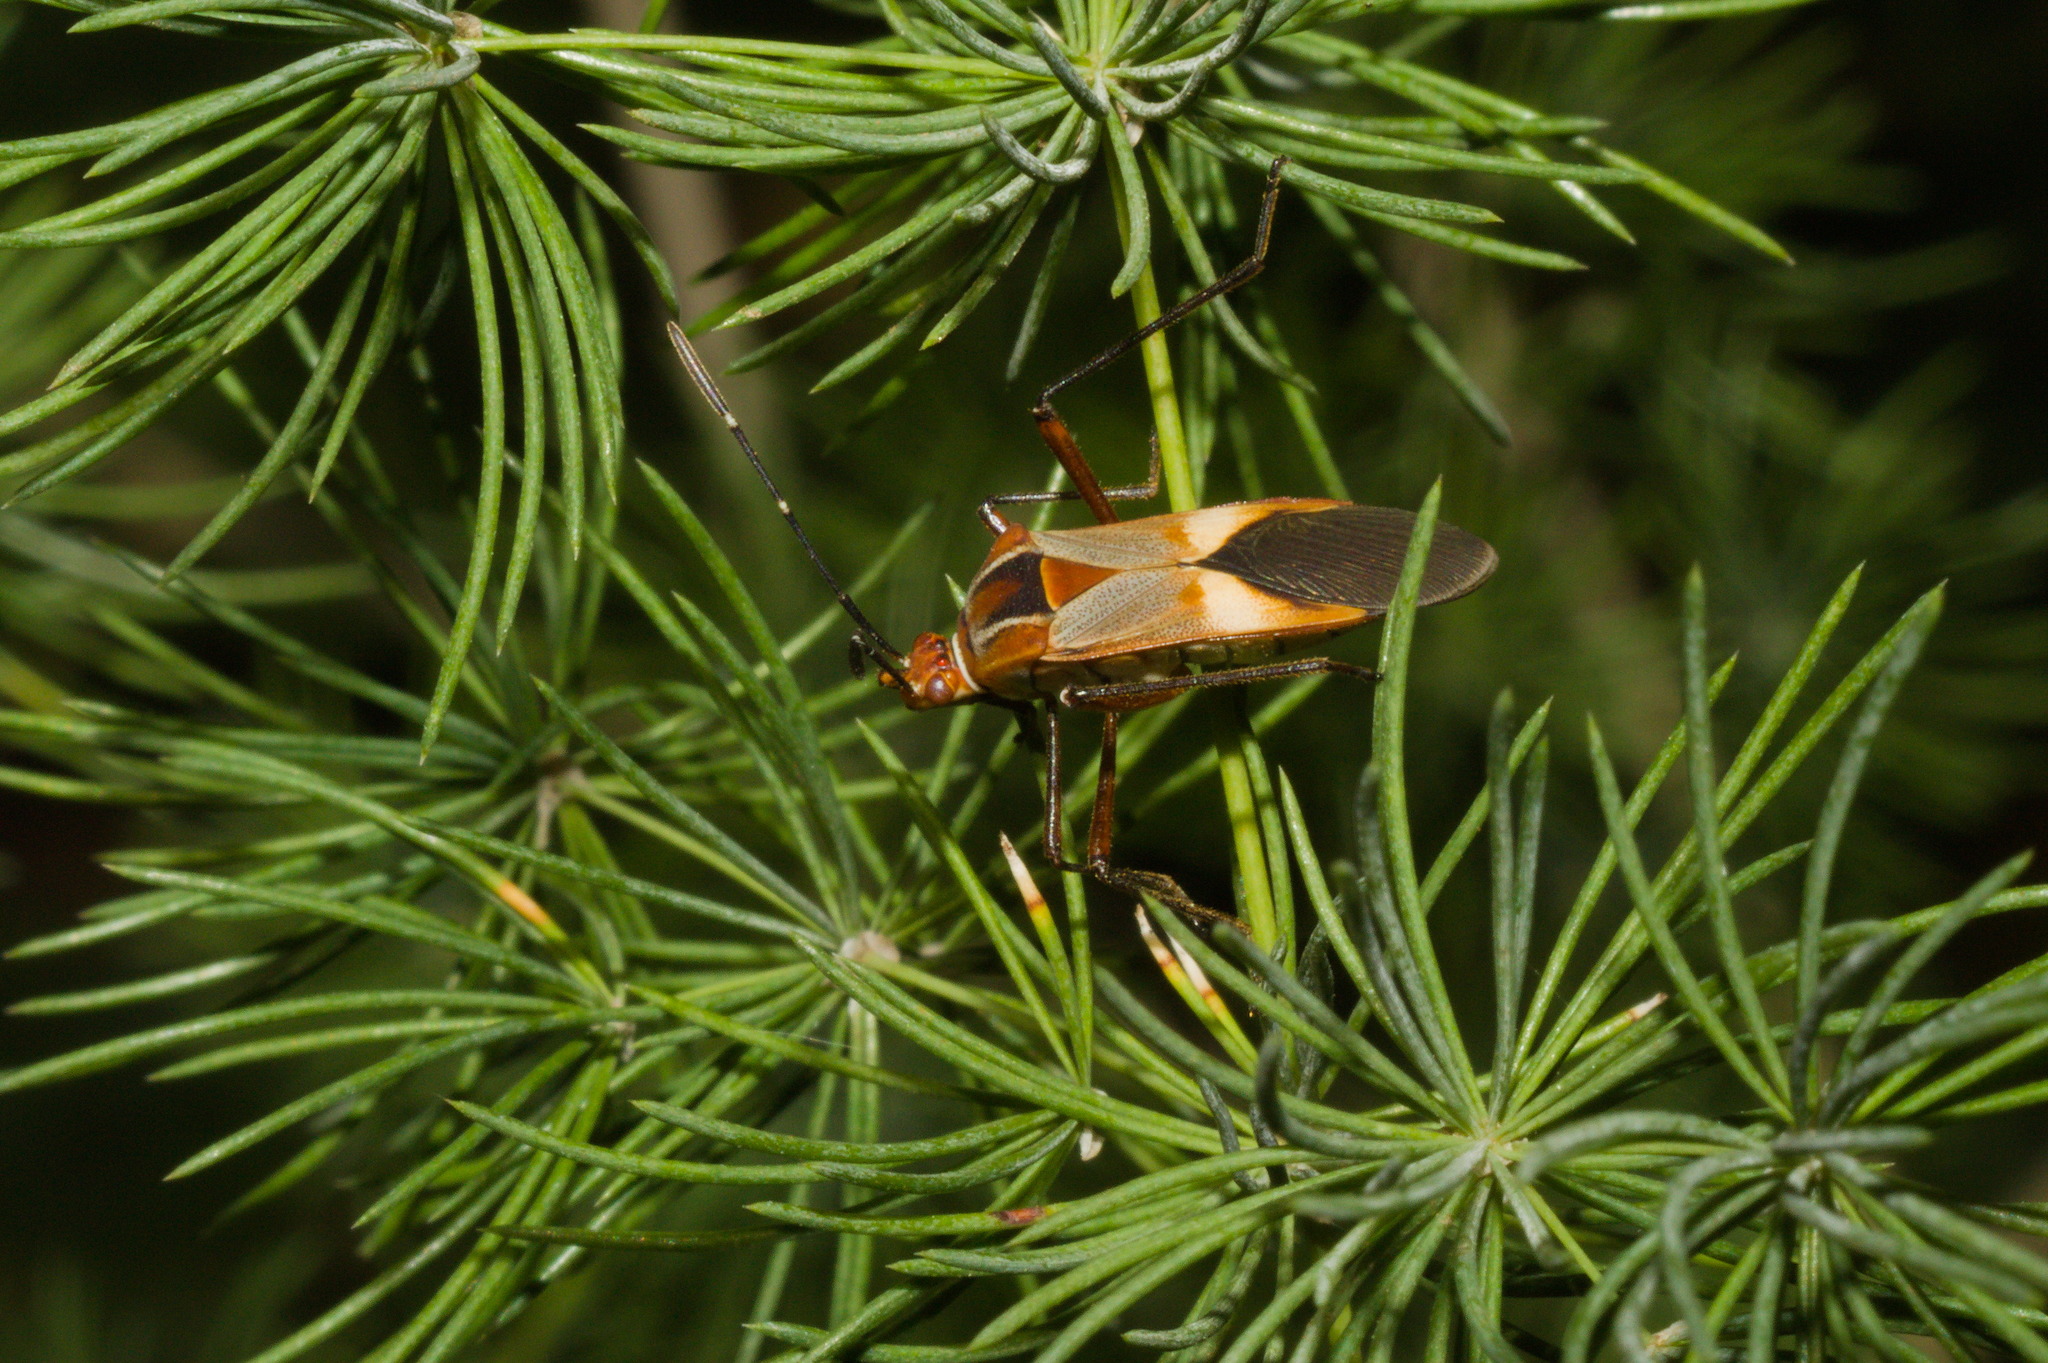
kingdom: Animalia
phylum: Arthropoda
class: Insecta
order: Hemiptera
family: Coreidae
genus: Hypselonotus
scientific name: Hypselonotus interruptus
